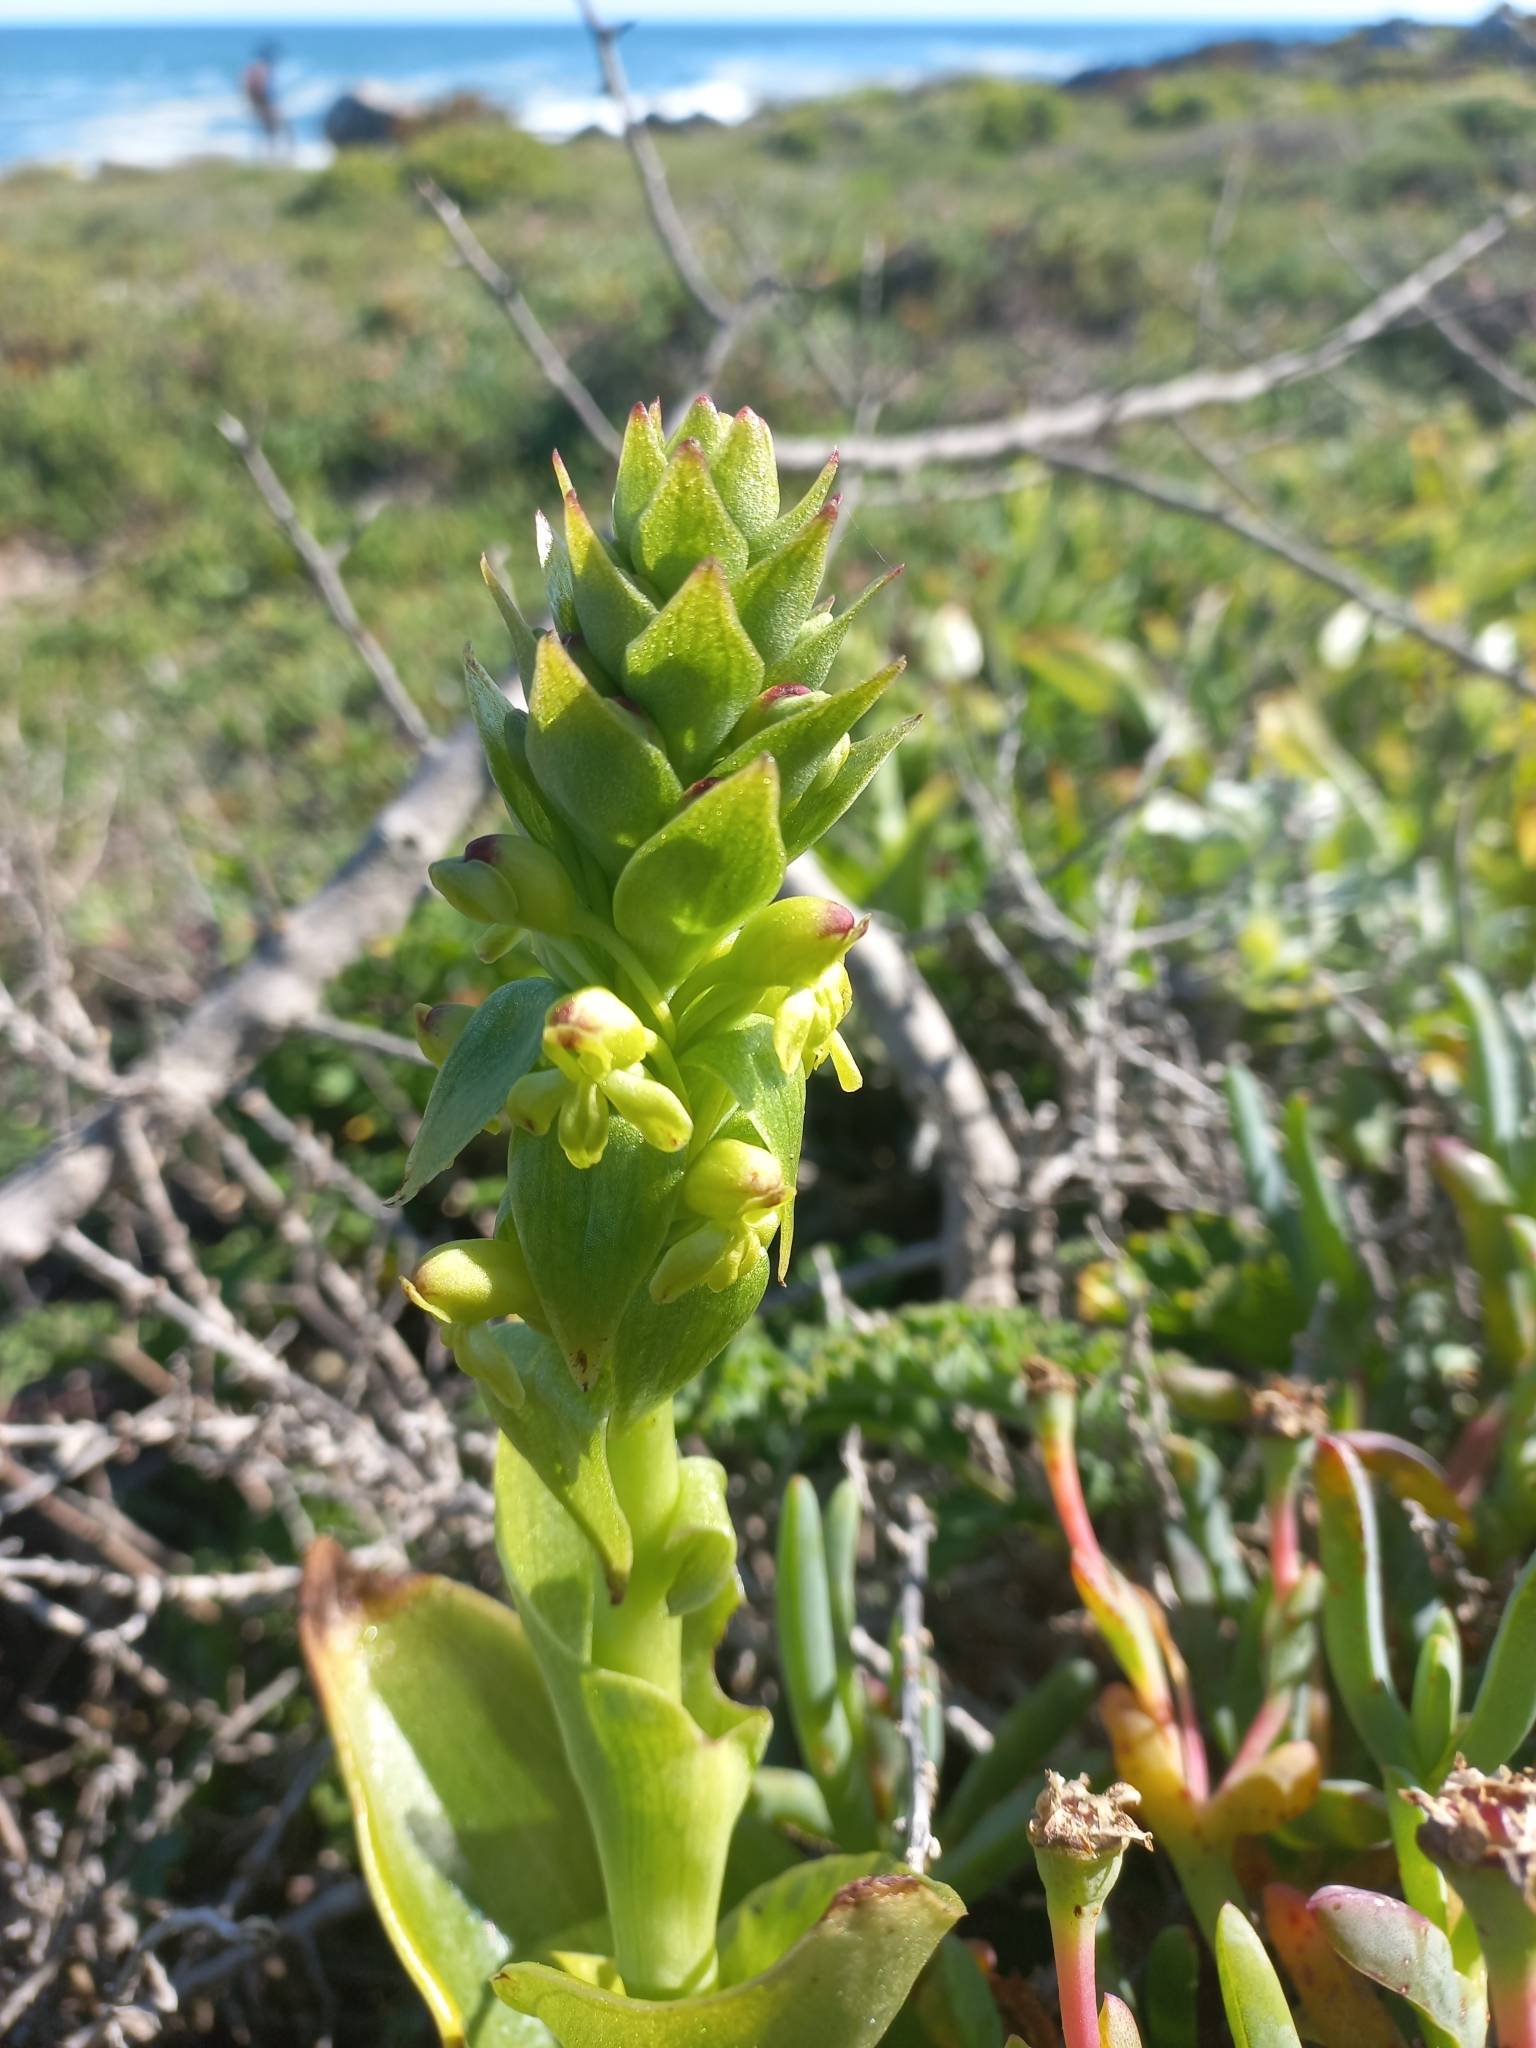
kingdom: Plantae
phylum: Tracheophyta
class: Liliopsida
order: Asparagales
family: Orchidaceae
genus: Satyrium
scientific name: Satyrium odorum
